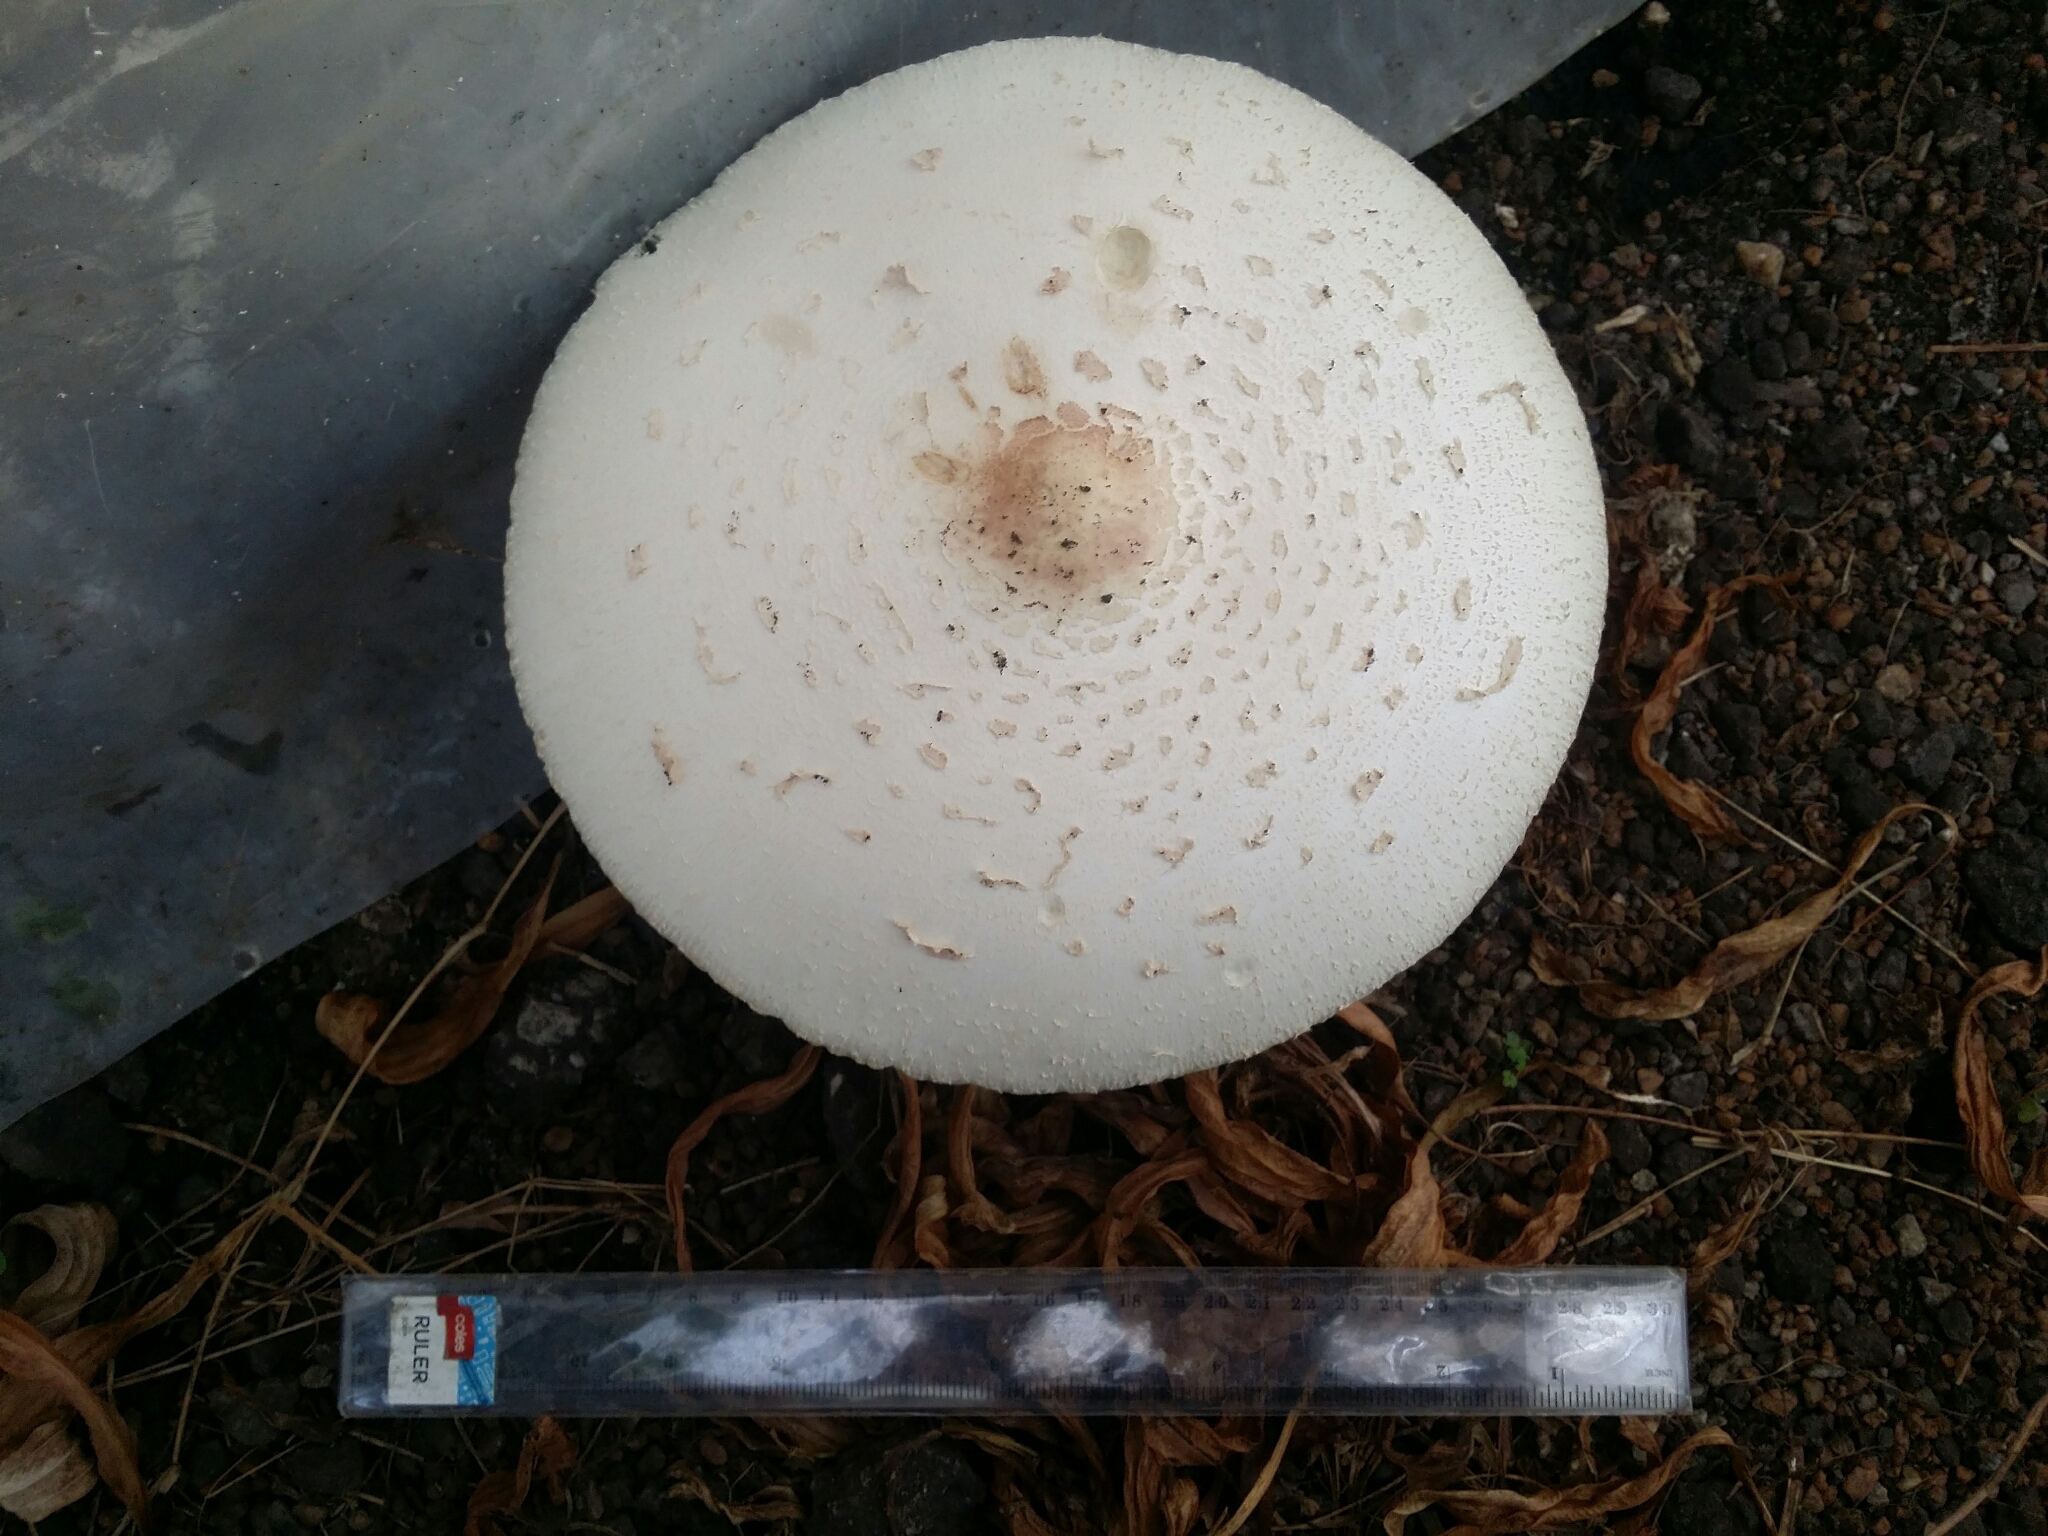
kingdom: Fungi
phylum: Basidiomycota
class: Agaricomycetes
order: Agaricales
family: Agaricaceae
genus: Chlorophyllum
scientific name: Chlorophyllum molybdites
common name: False parasol
